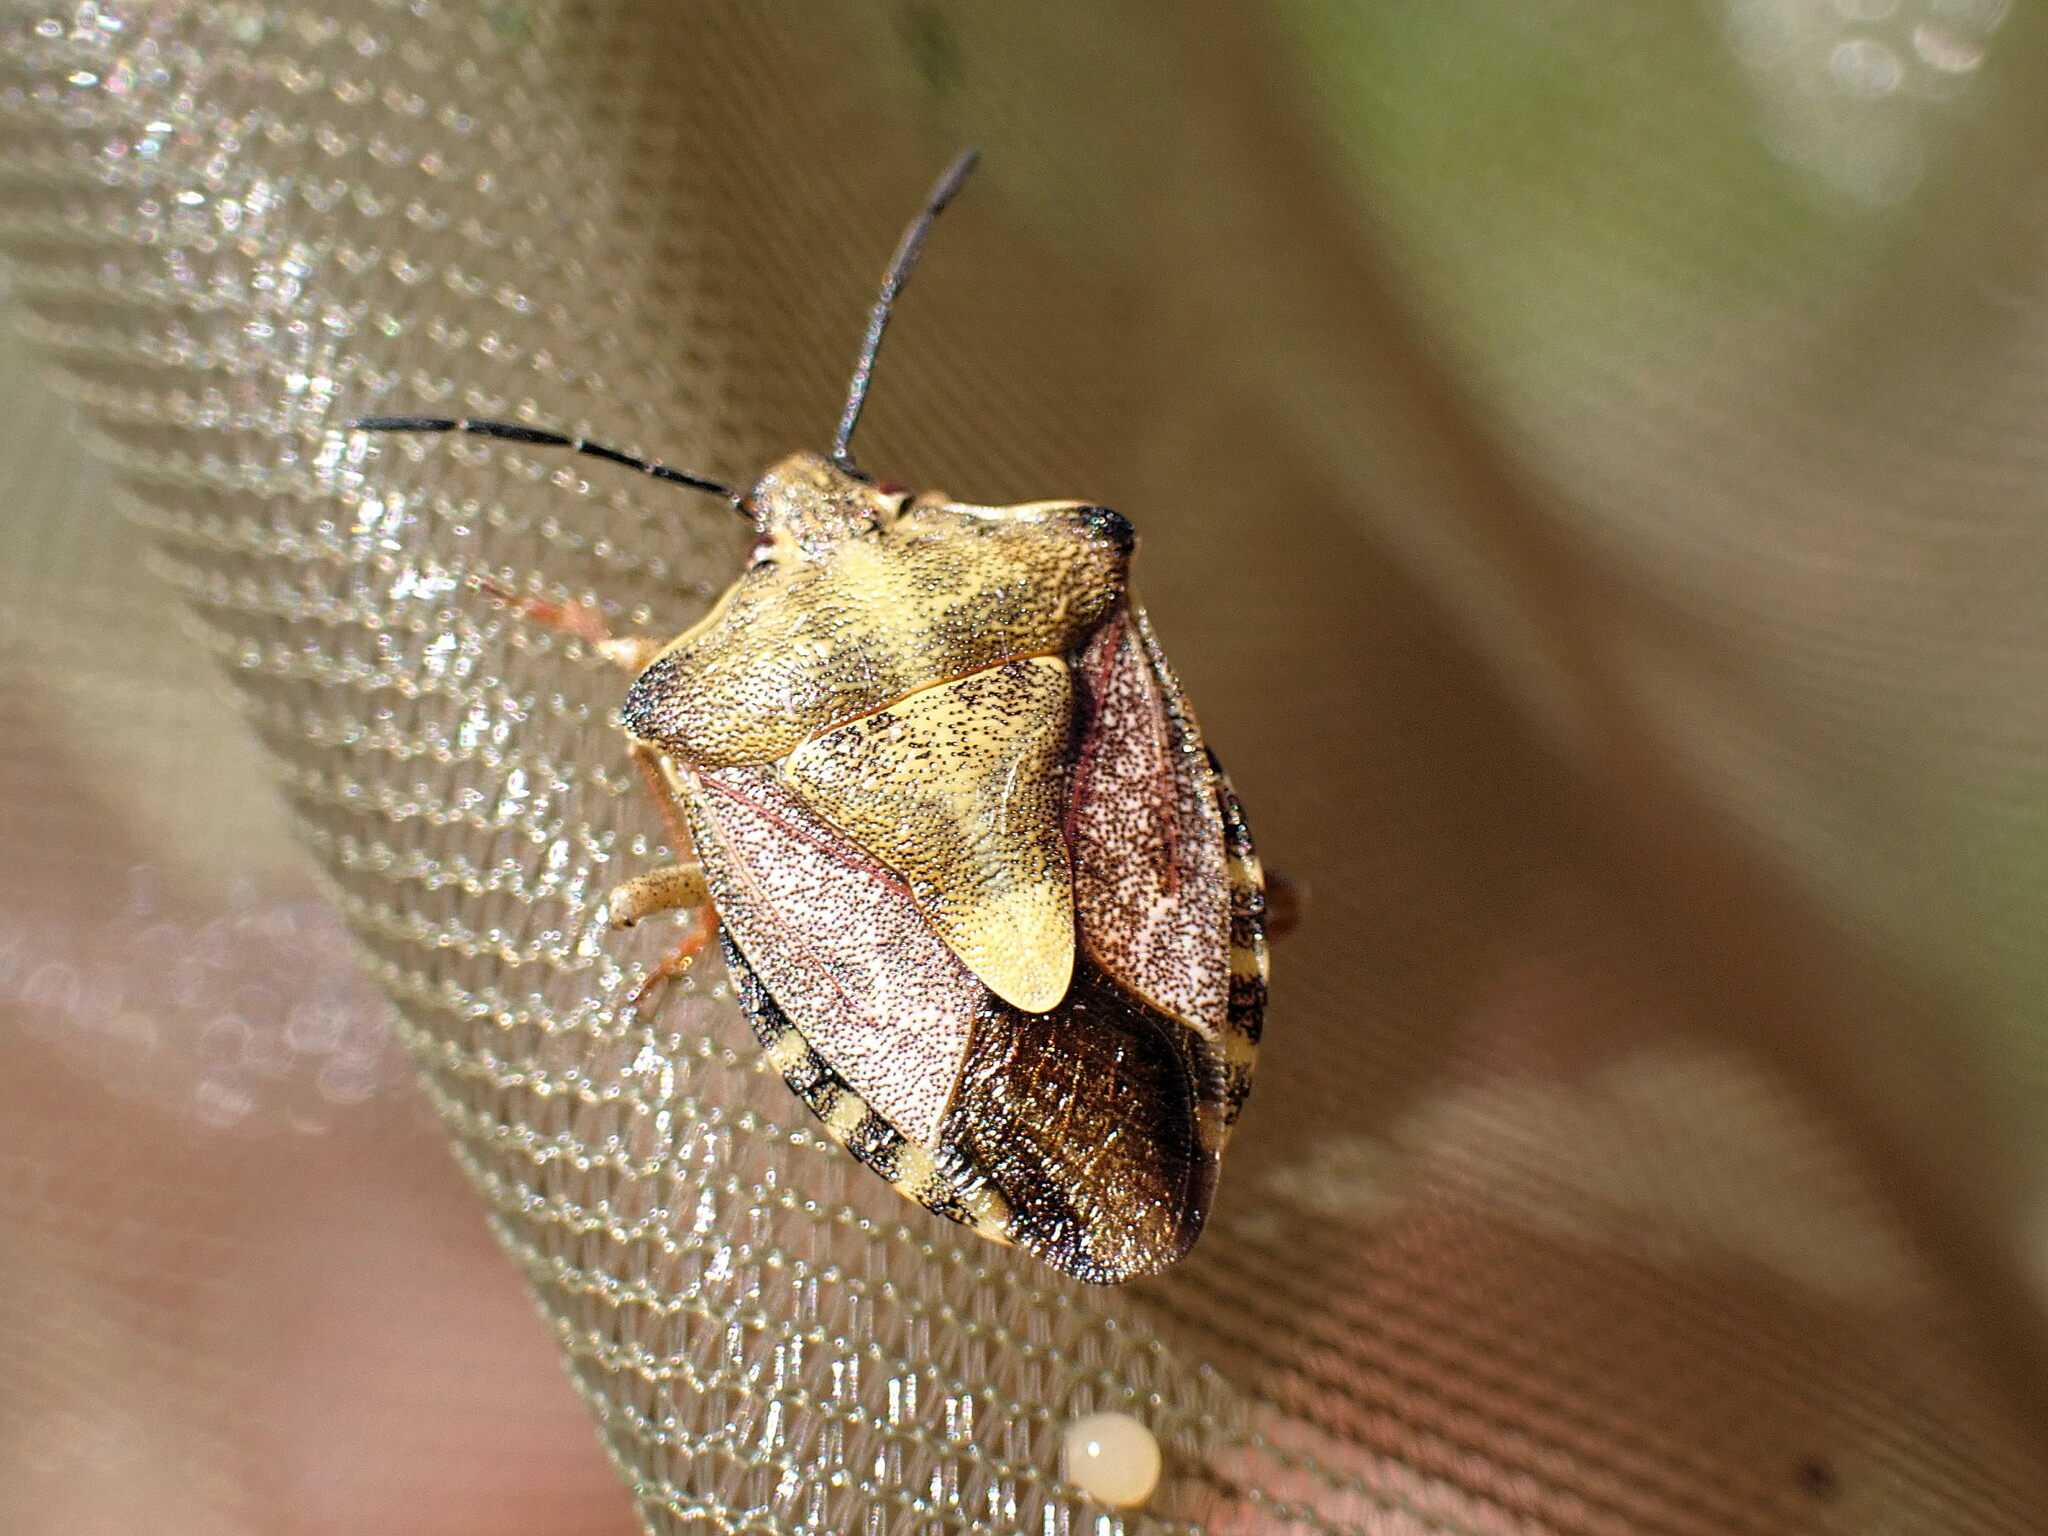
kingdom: Animalia
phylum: Arthropoda
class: Insecta
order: Hemiptera
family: Pentatomidae
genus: Carpocoris
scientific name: Carpocoris purpureipennis
